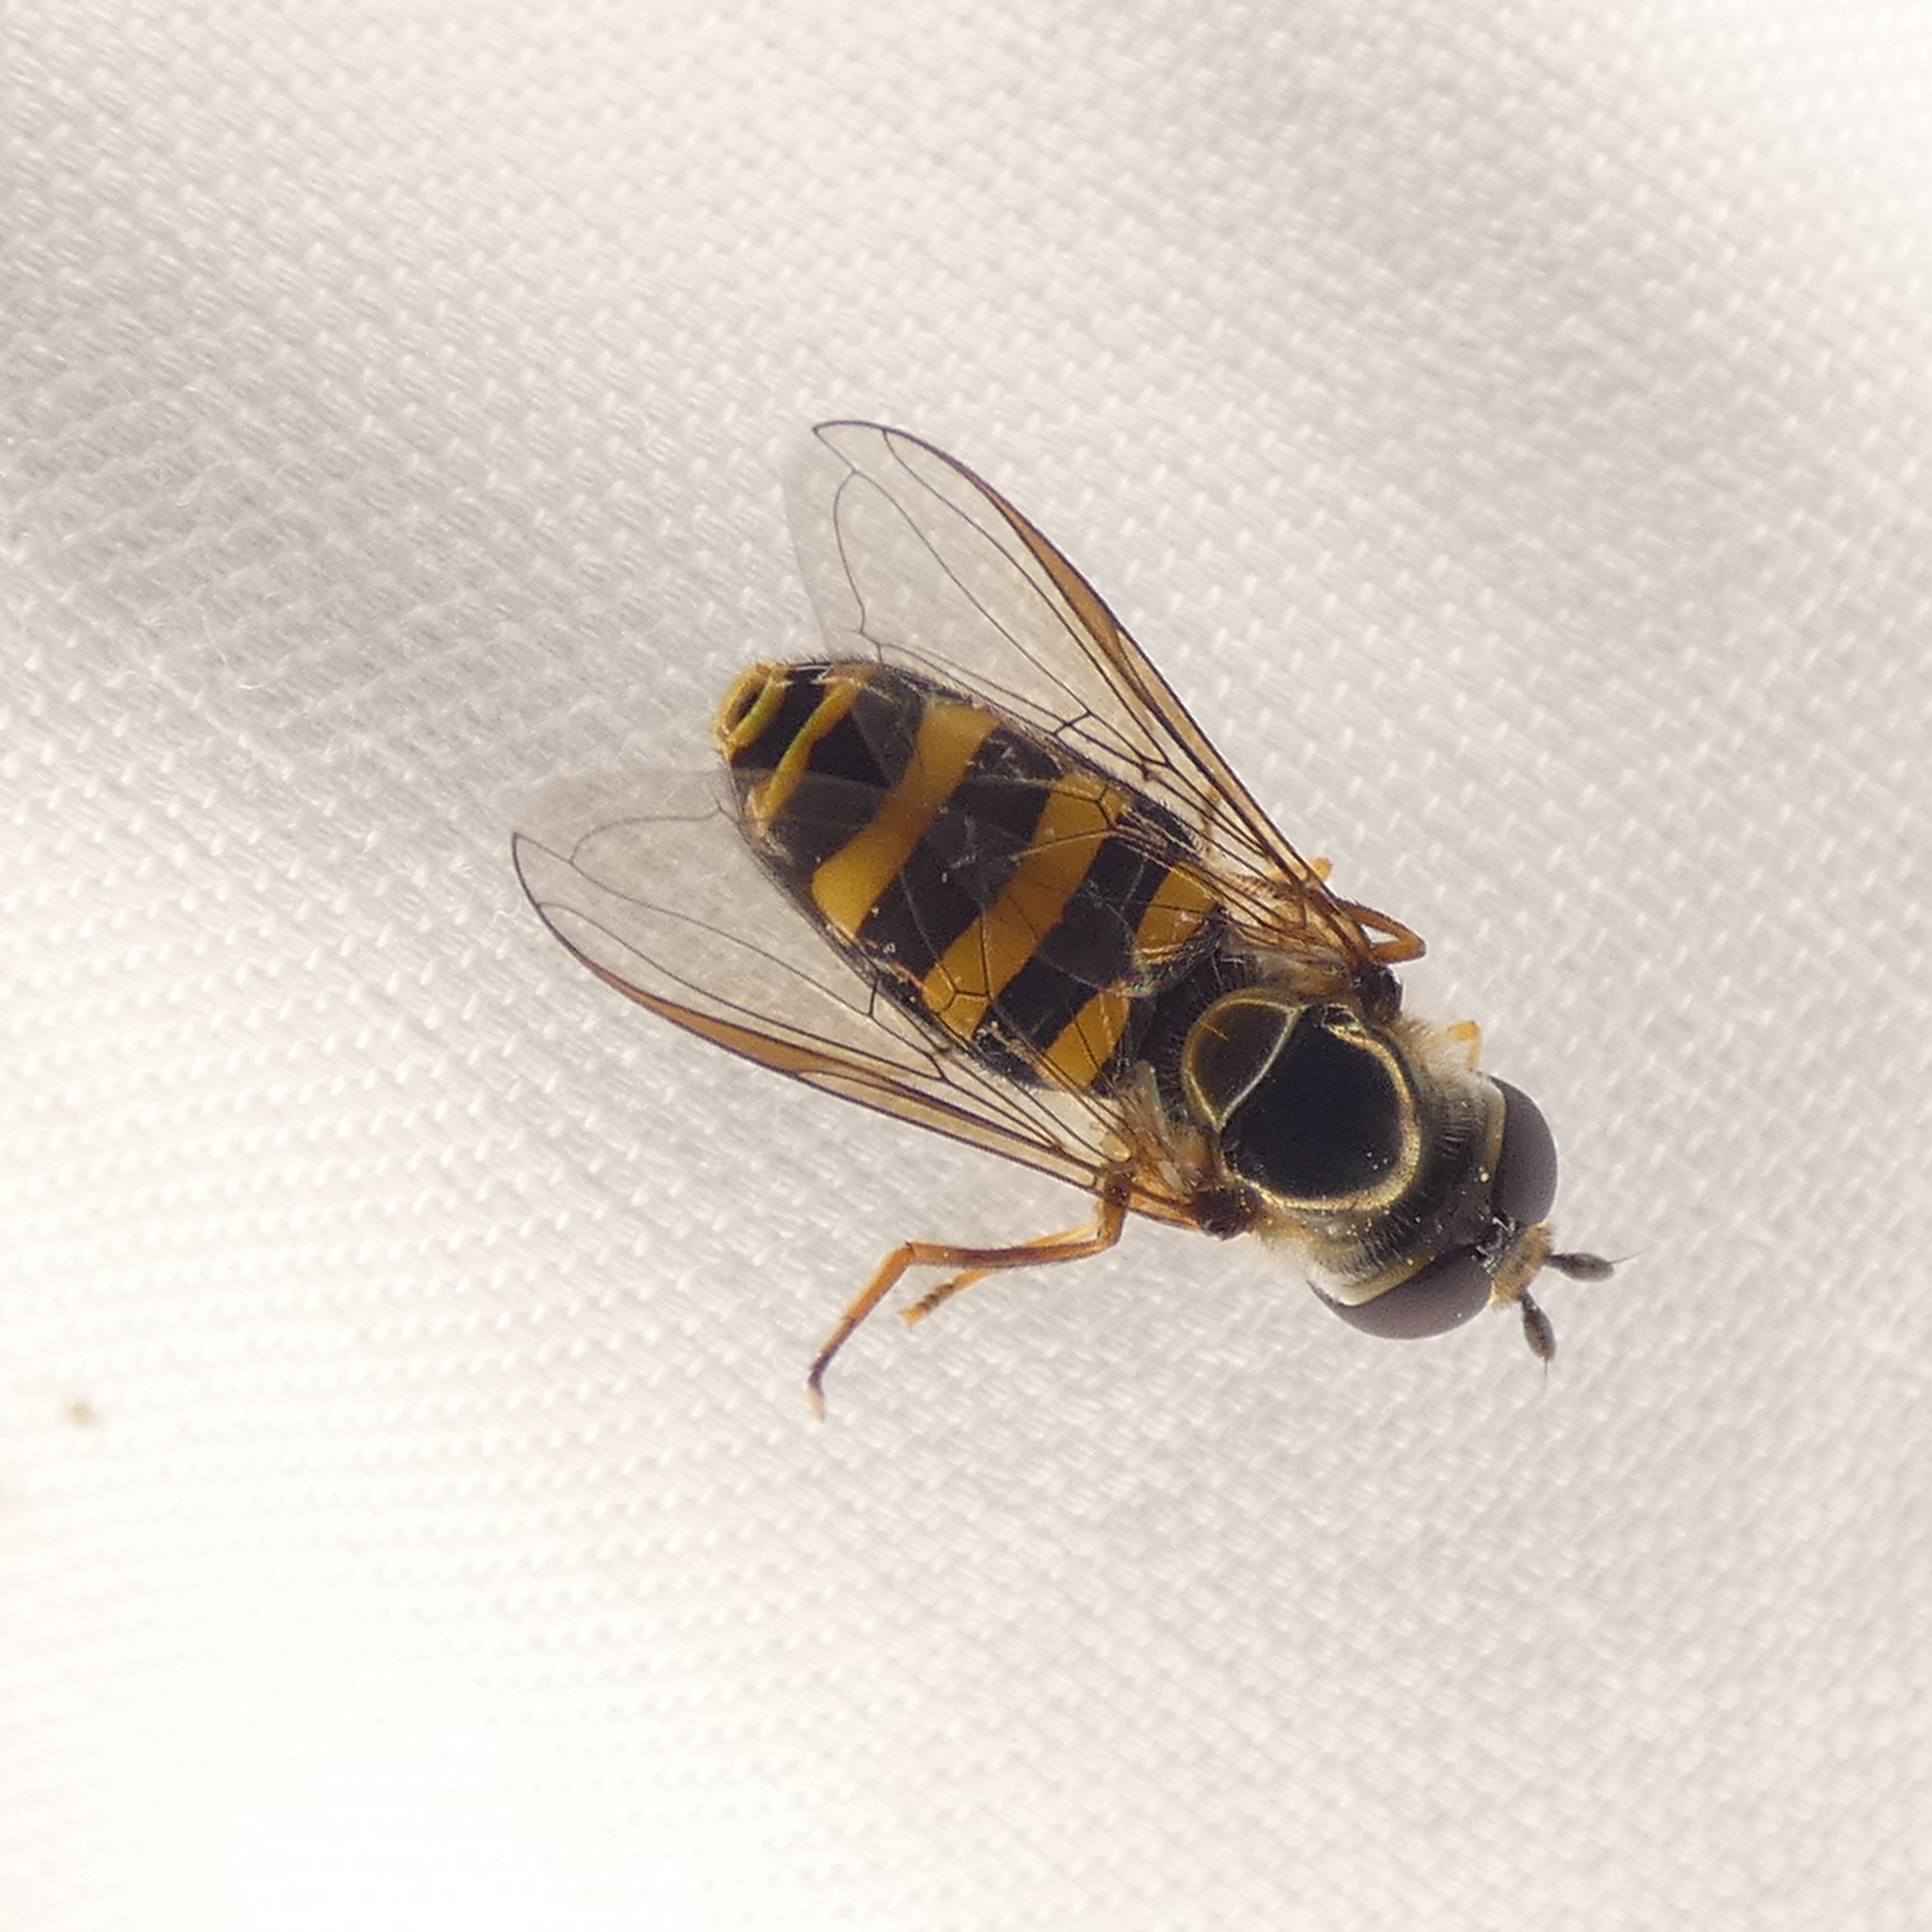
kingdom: Animalia
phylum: Arthropoda
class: Insecta
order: Diptera
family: Syrphidae
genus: Eupeodes
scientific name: Eupeodes
